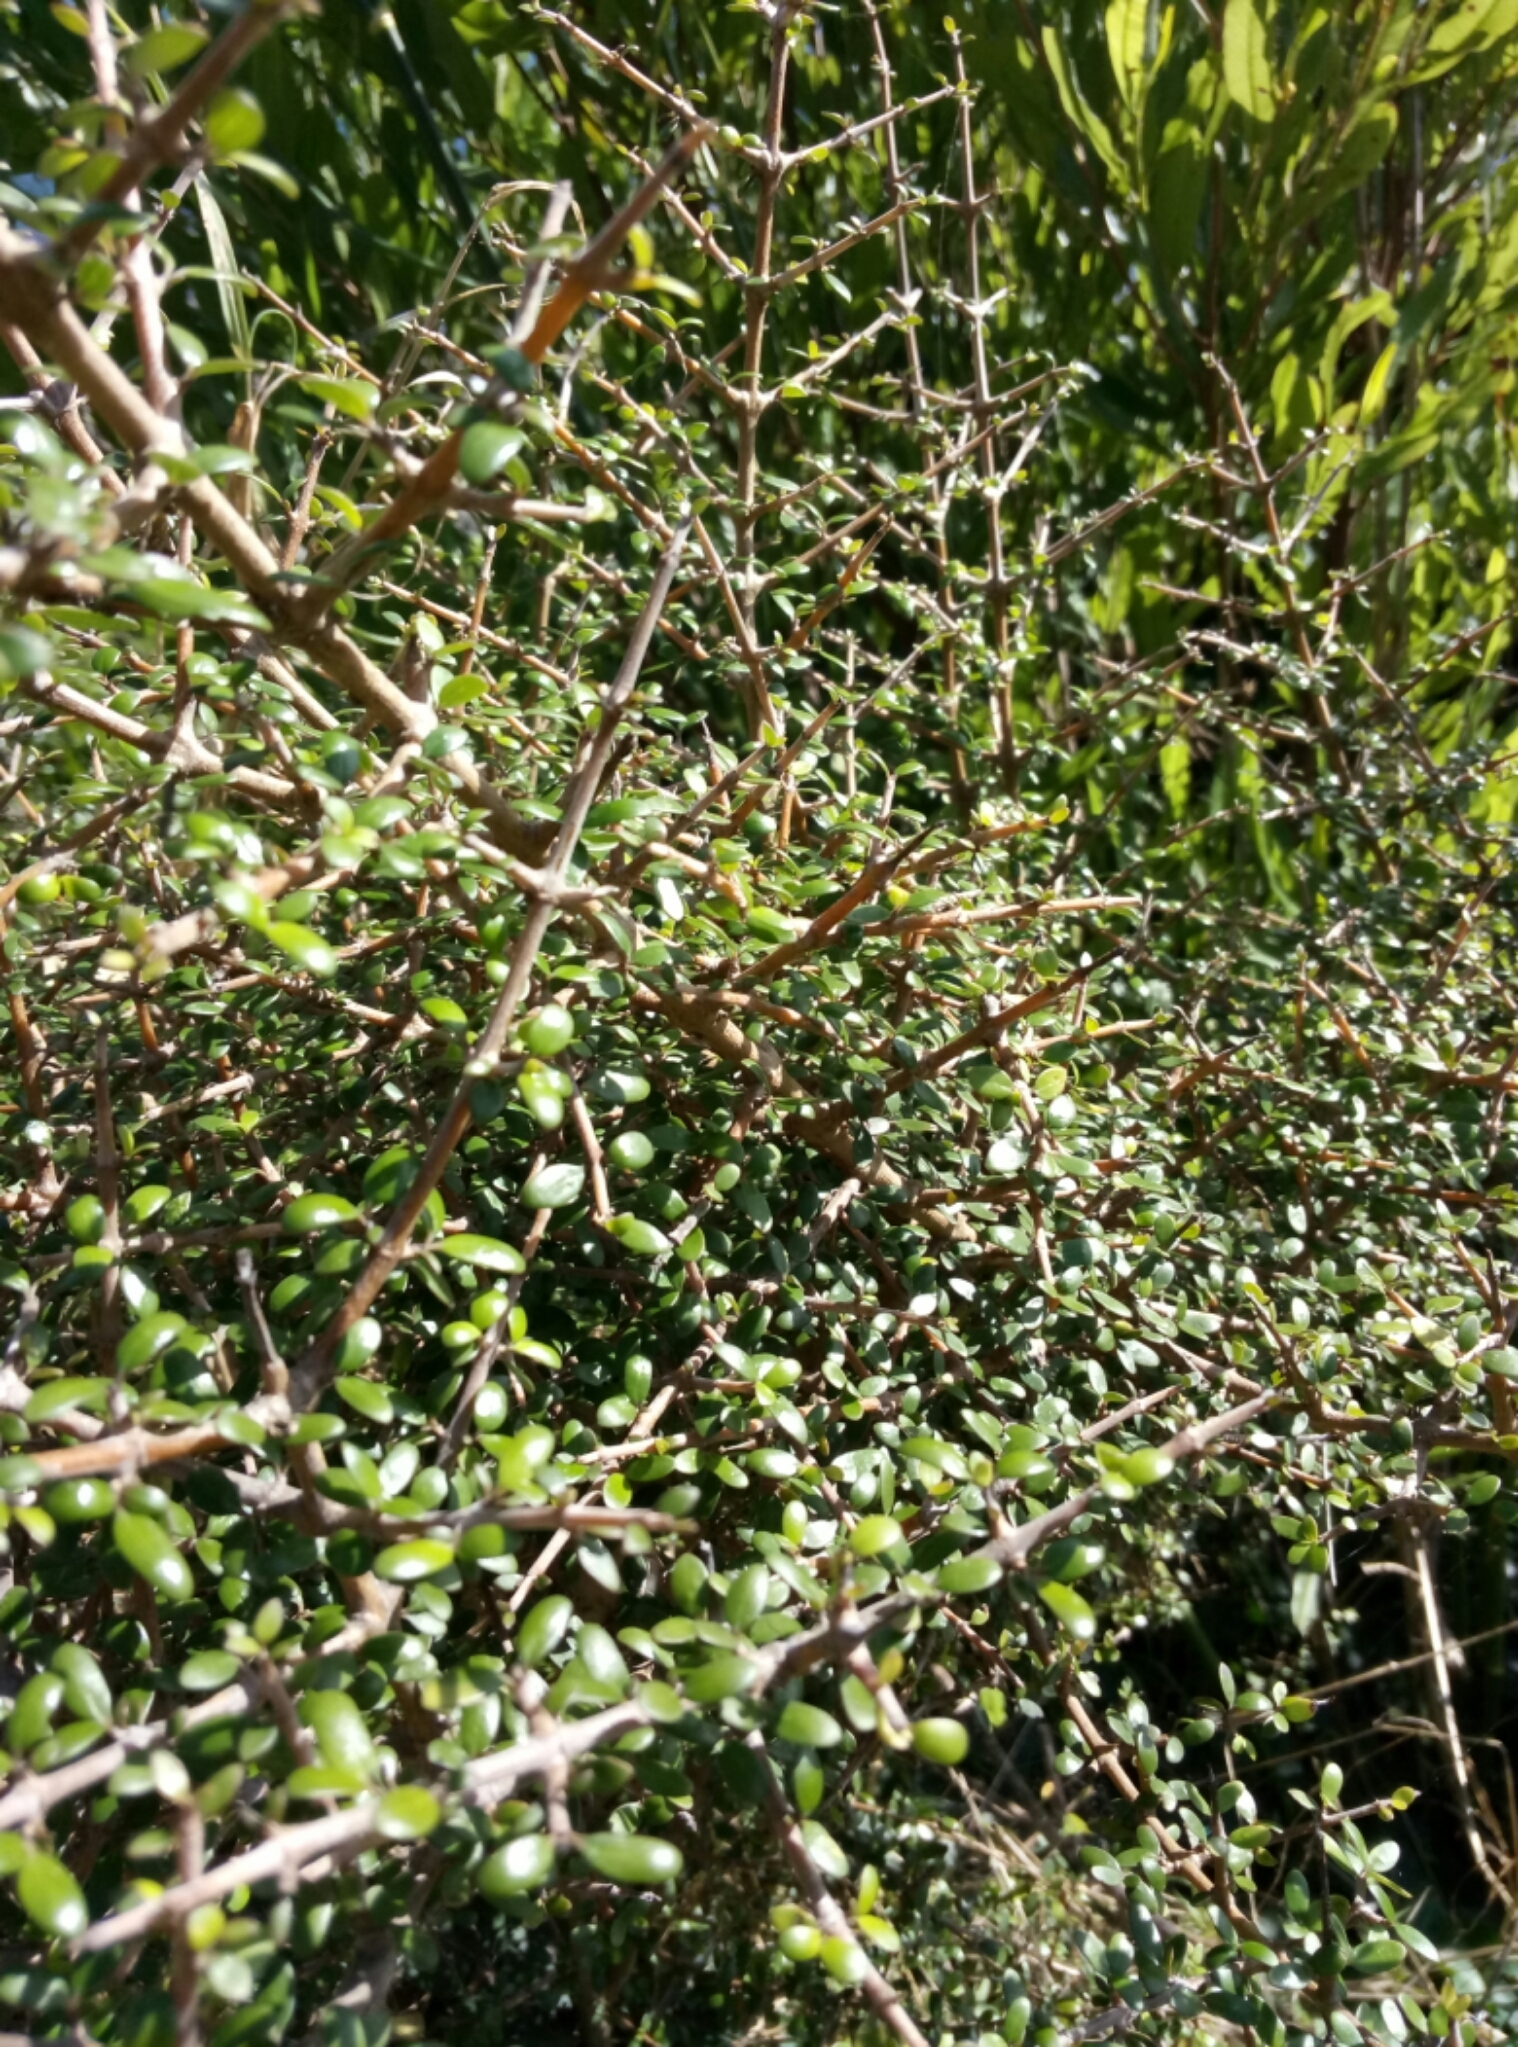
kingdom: Plantae
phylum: Tracheophyta
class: Magnoliopsida
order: Gentianales
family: Rubiaceae
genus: Coprosma
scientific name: Coprosma propinqua
